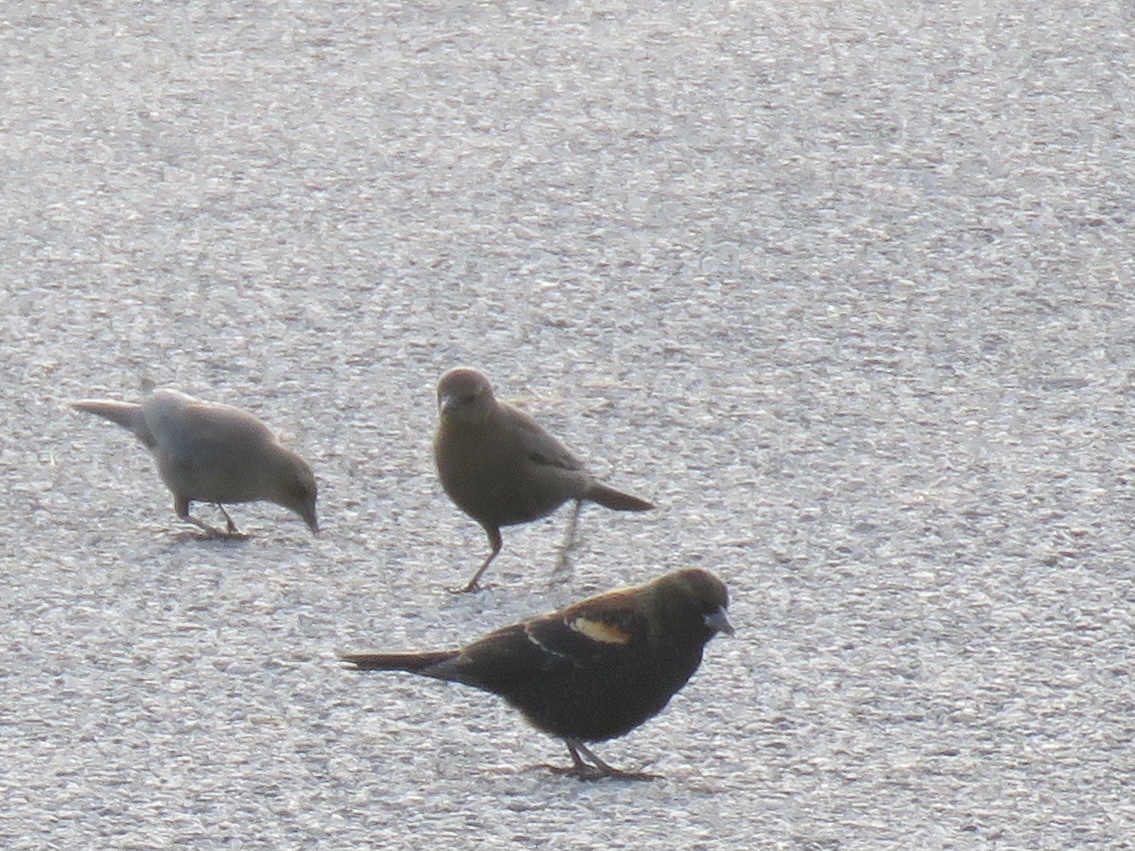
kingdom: Animalia
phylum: Chordata
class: Aves
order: Passeriformes
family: Icteridae
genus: Agelaius
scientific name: Agelaius phoeniceus
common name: Red-winged blackbird
